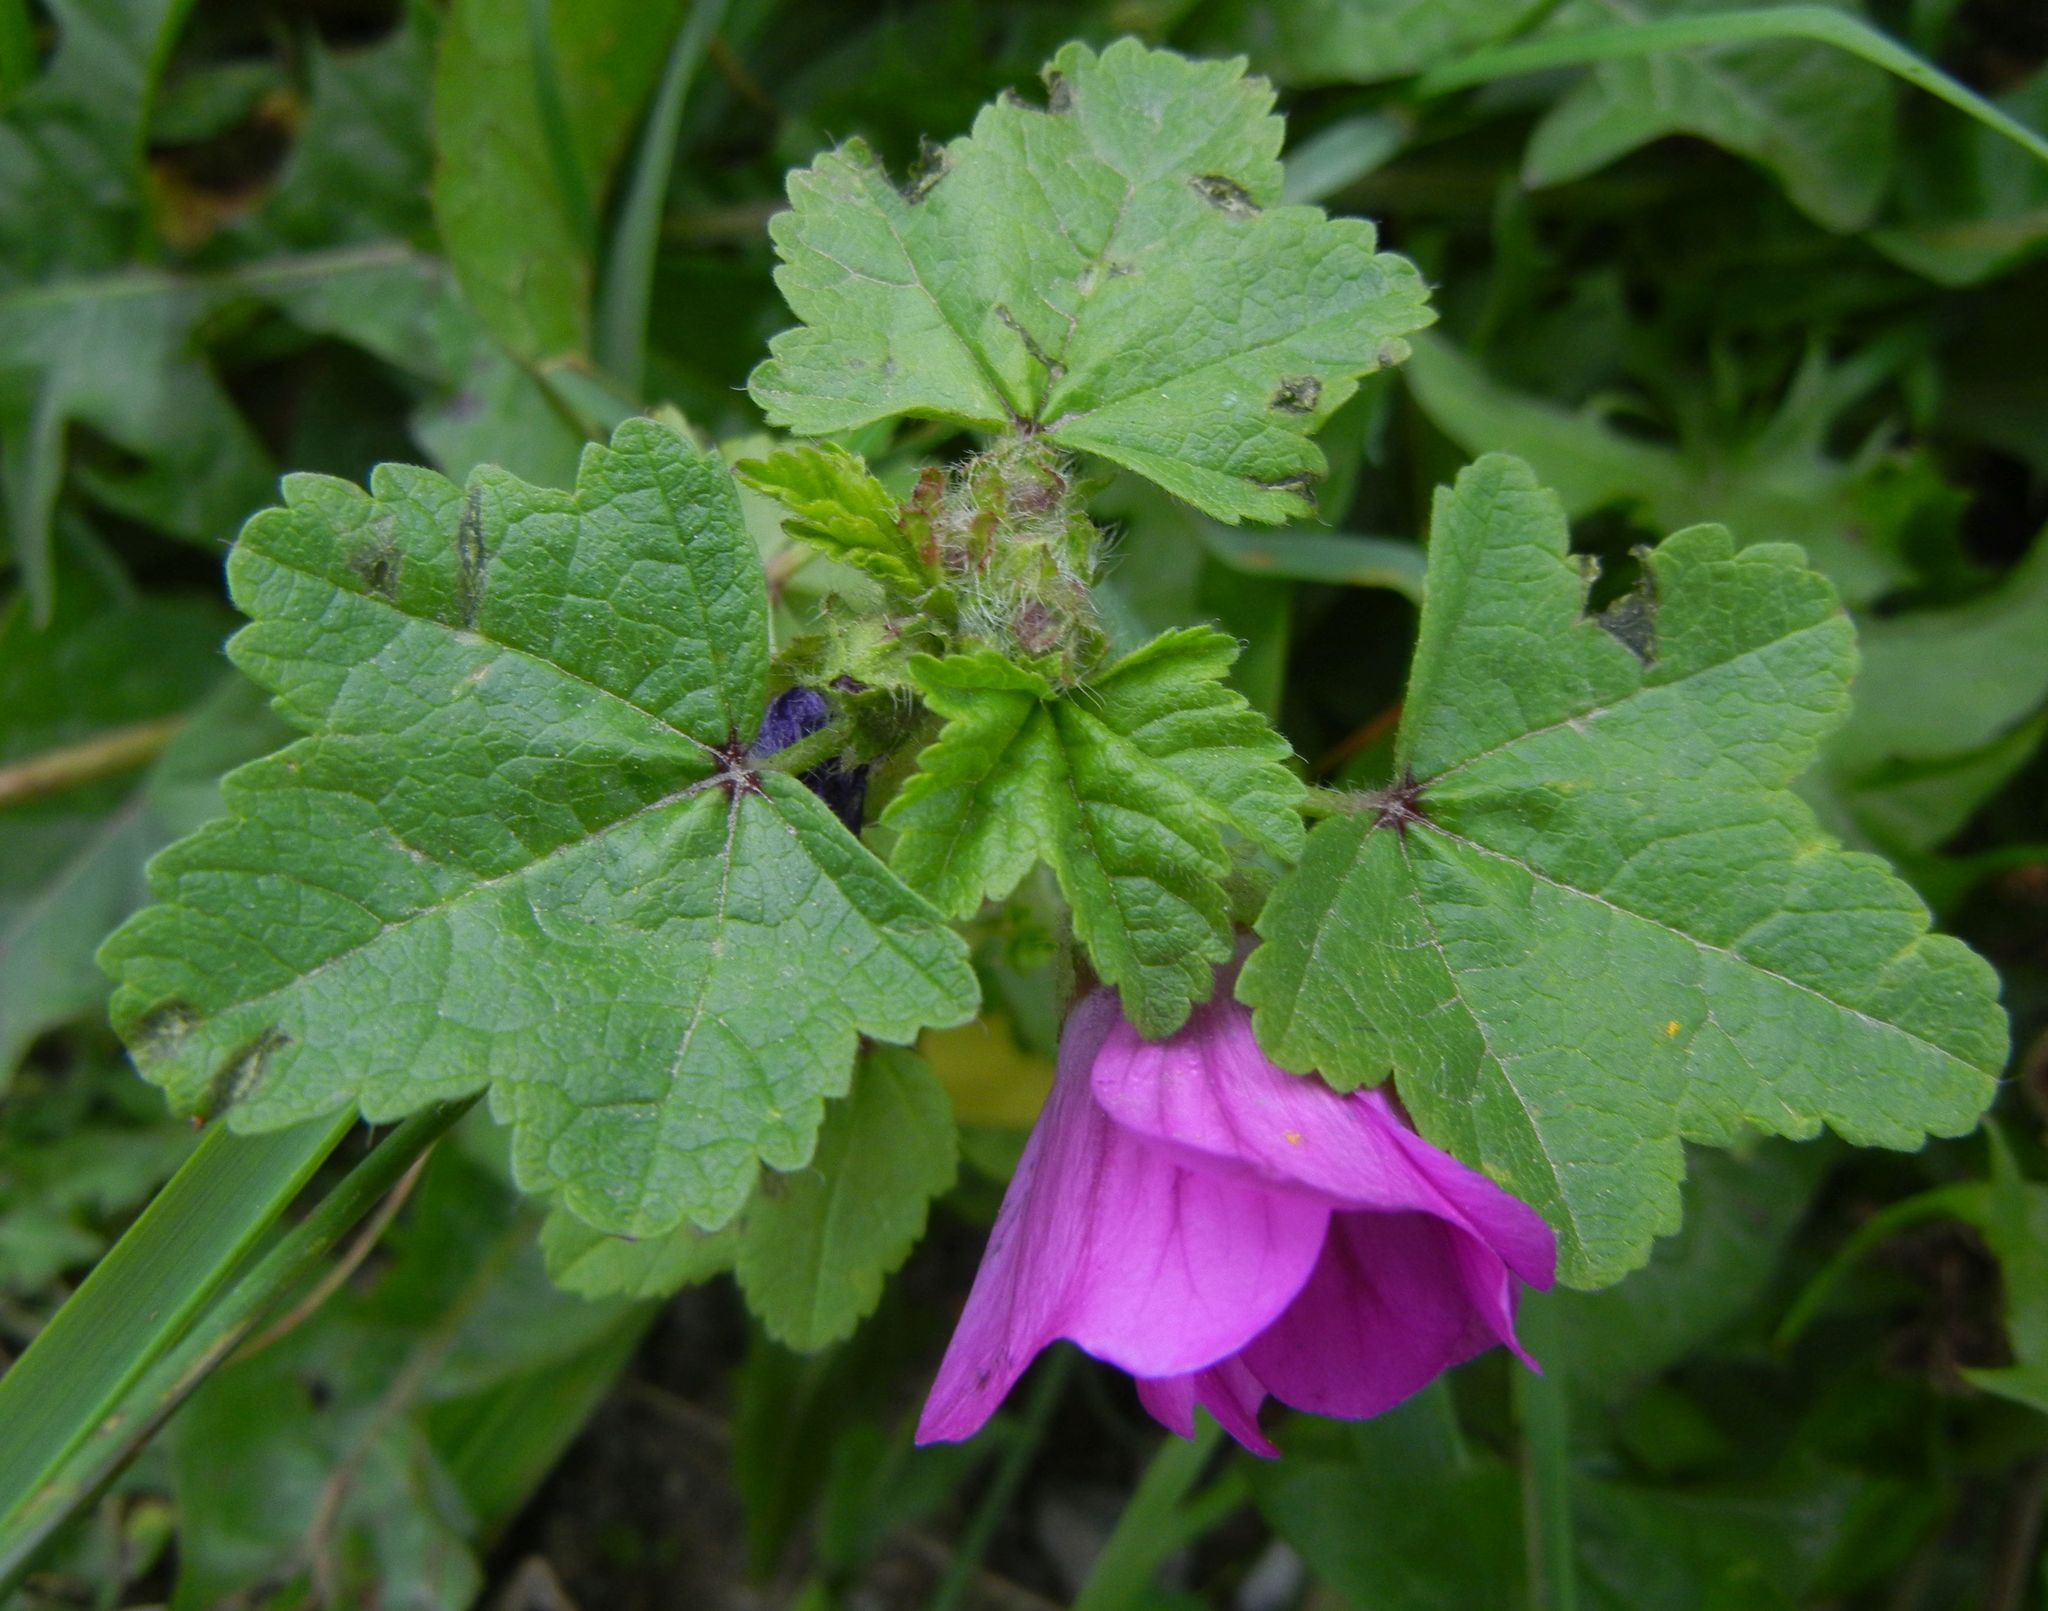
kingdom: Plantae
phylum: Tracheophyta
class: Magnoliopsida
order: Malvales
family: Malvaceae
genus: Malva
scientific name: Malva sylvestris
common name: Common mallow
